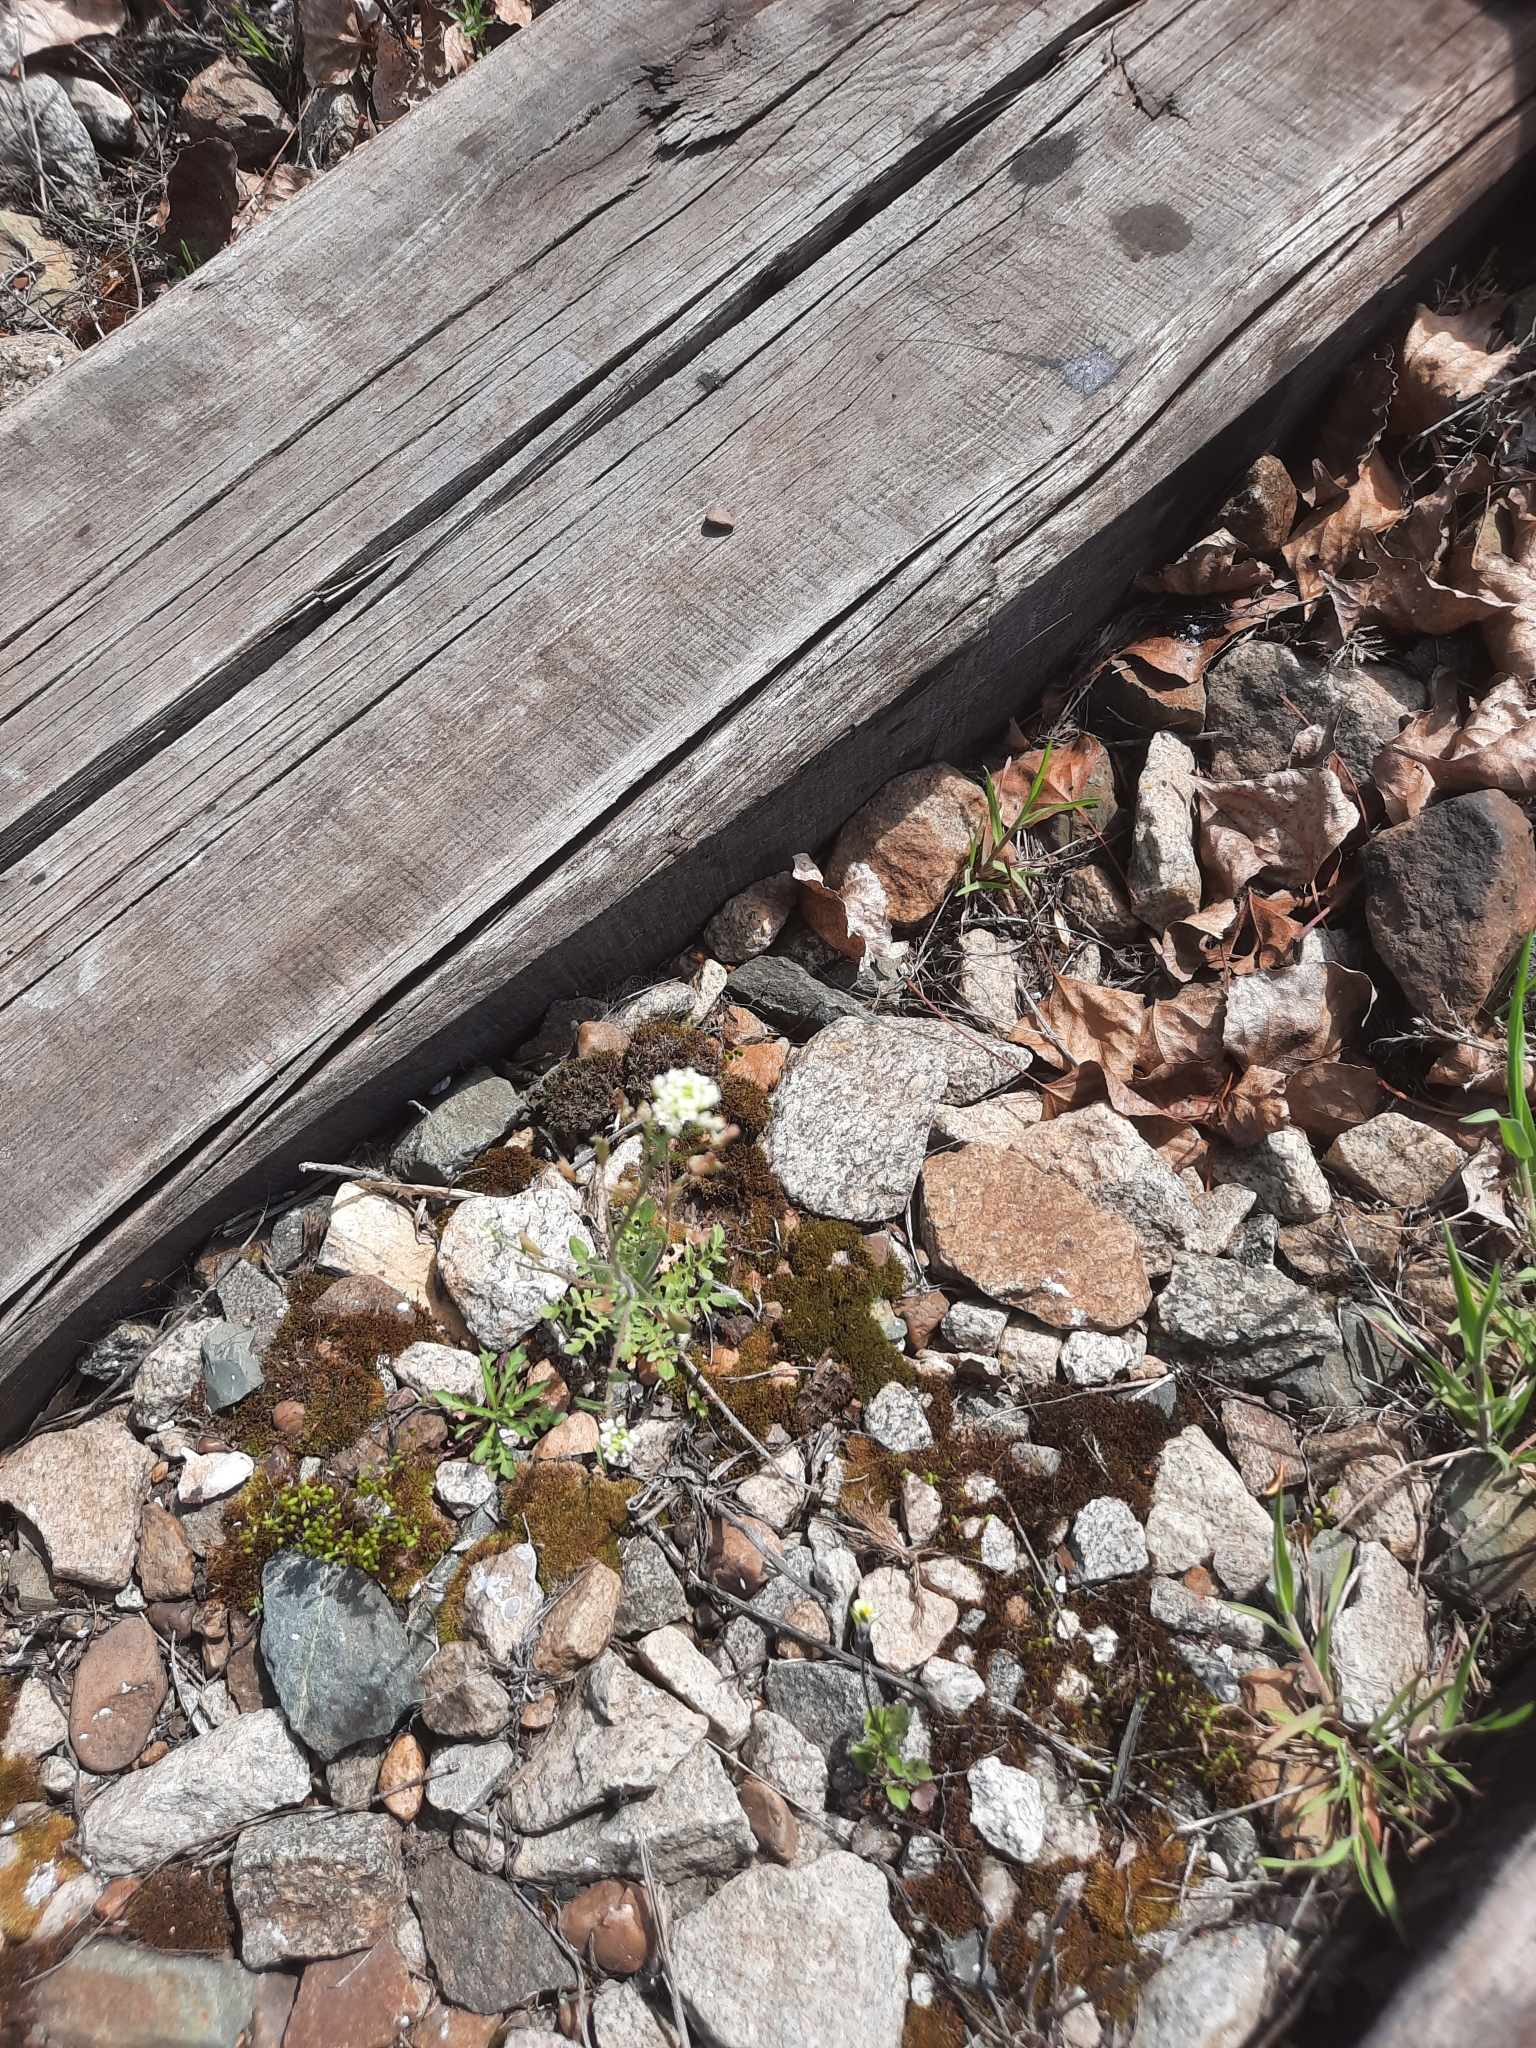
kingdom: Plantae
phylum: Tracheophyta
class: Magnoliopsida
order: Brassicales
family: Brassicaceae
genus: Capsella
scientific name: Capsella bursa-pastoris
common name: Shepherd's purse
